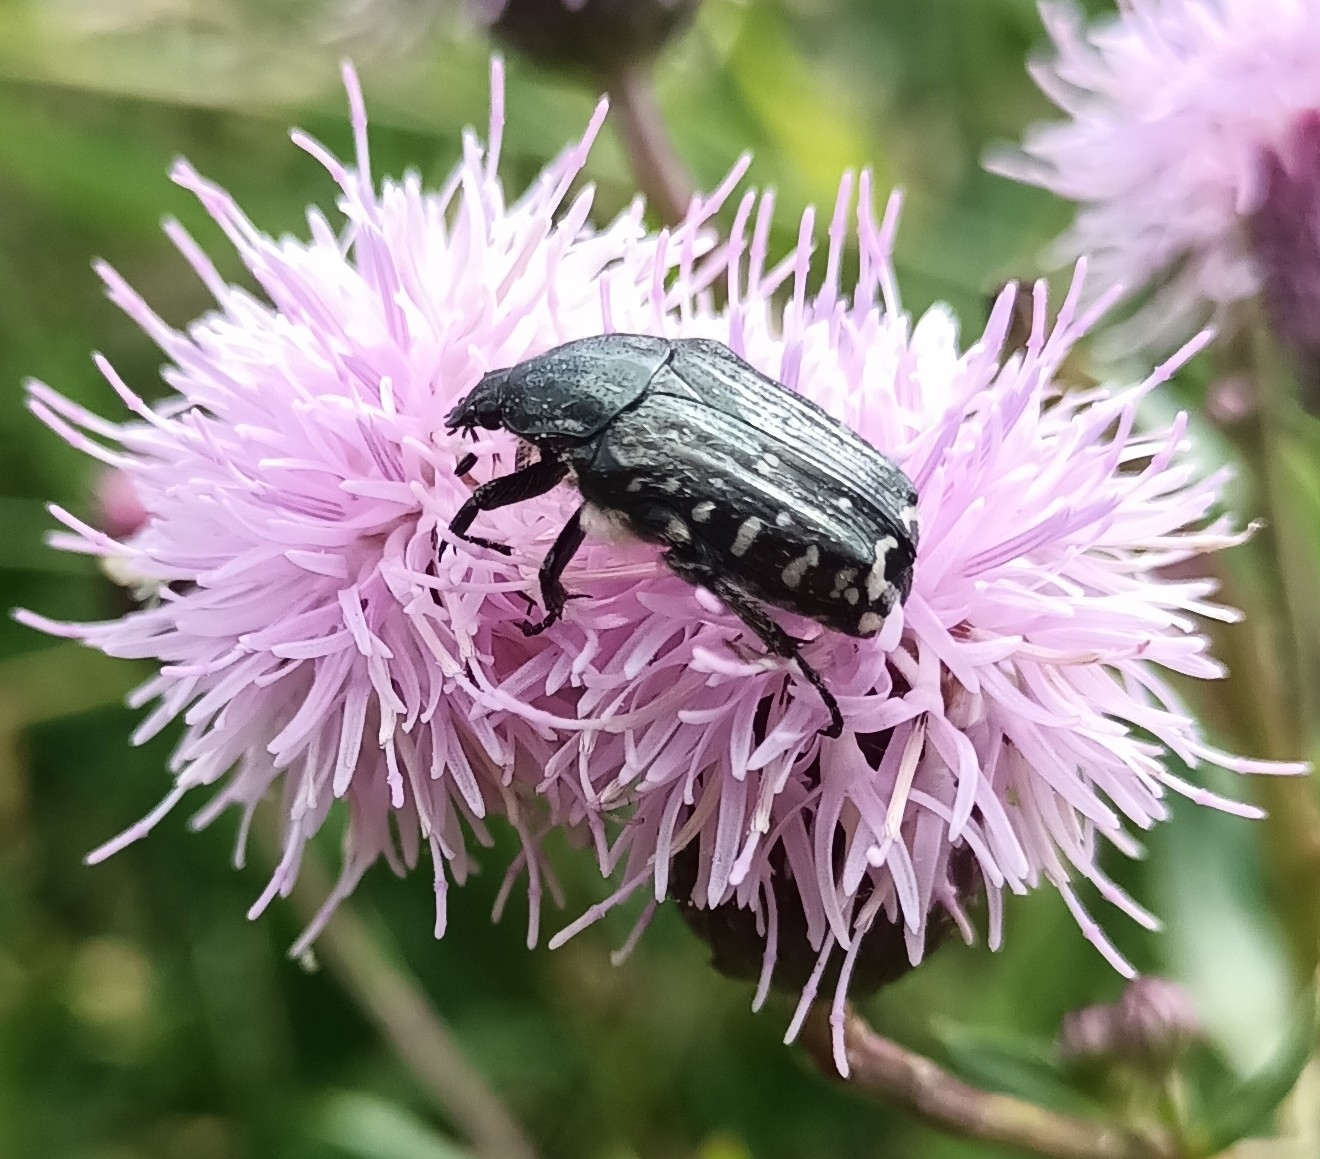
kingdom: Animalia
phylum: Arthropoda
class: Insecta
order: Coleoptera
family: Scarabaeidae
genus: Oxythyrea
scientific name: Oxythyrea funesta
